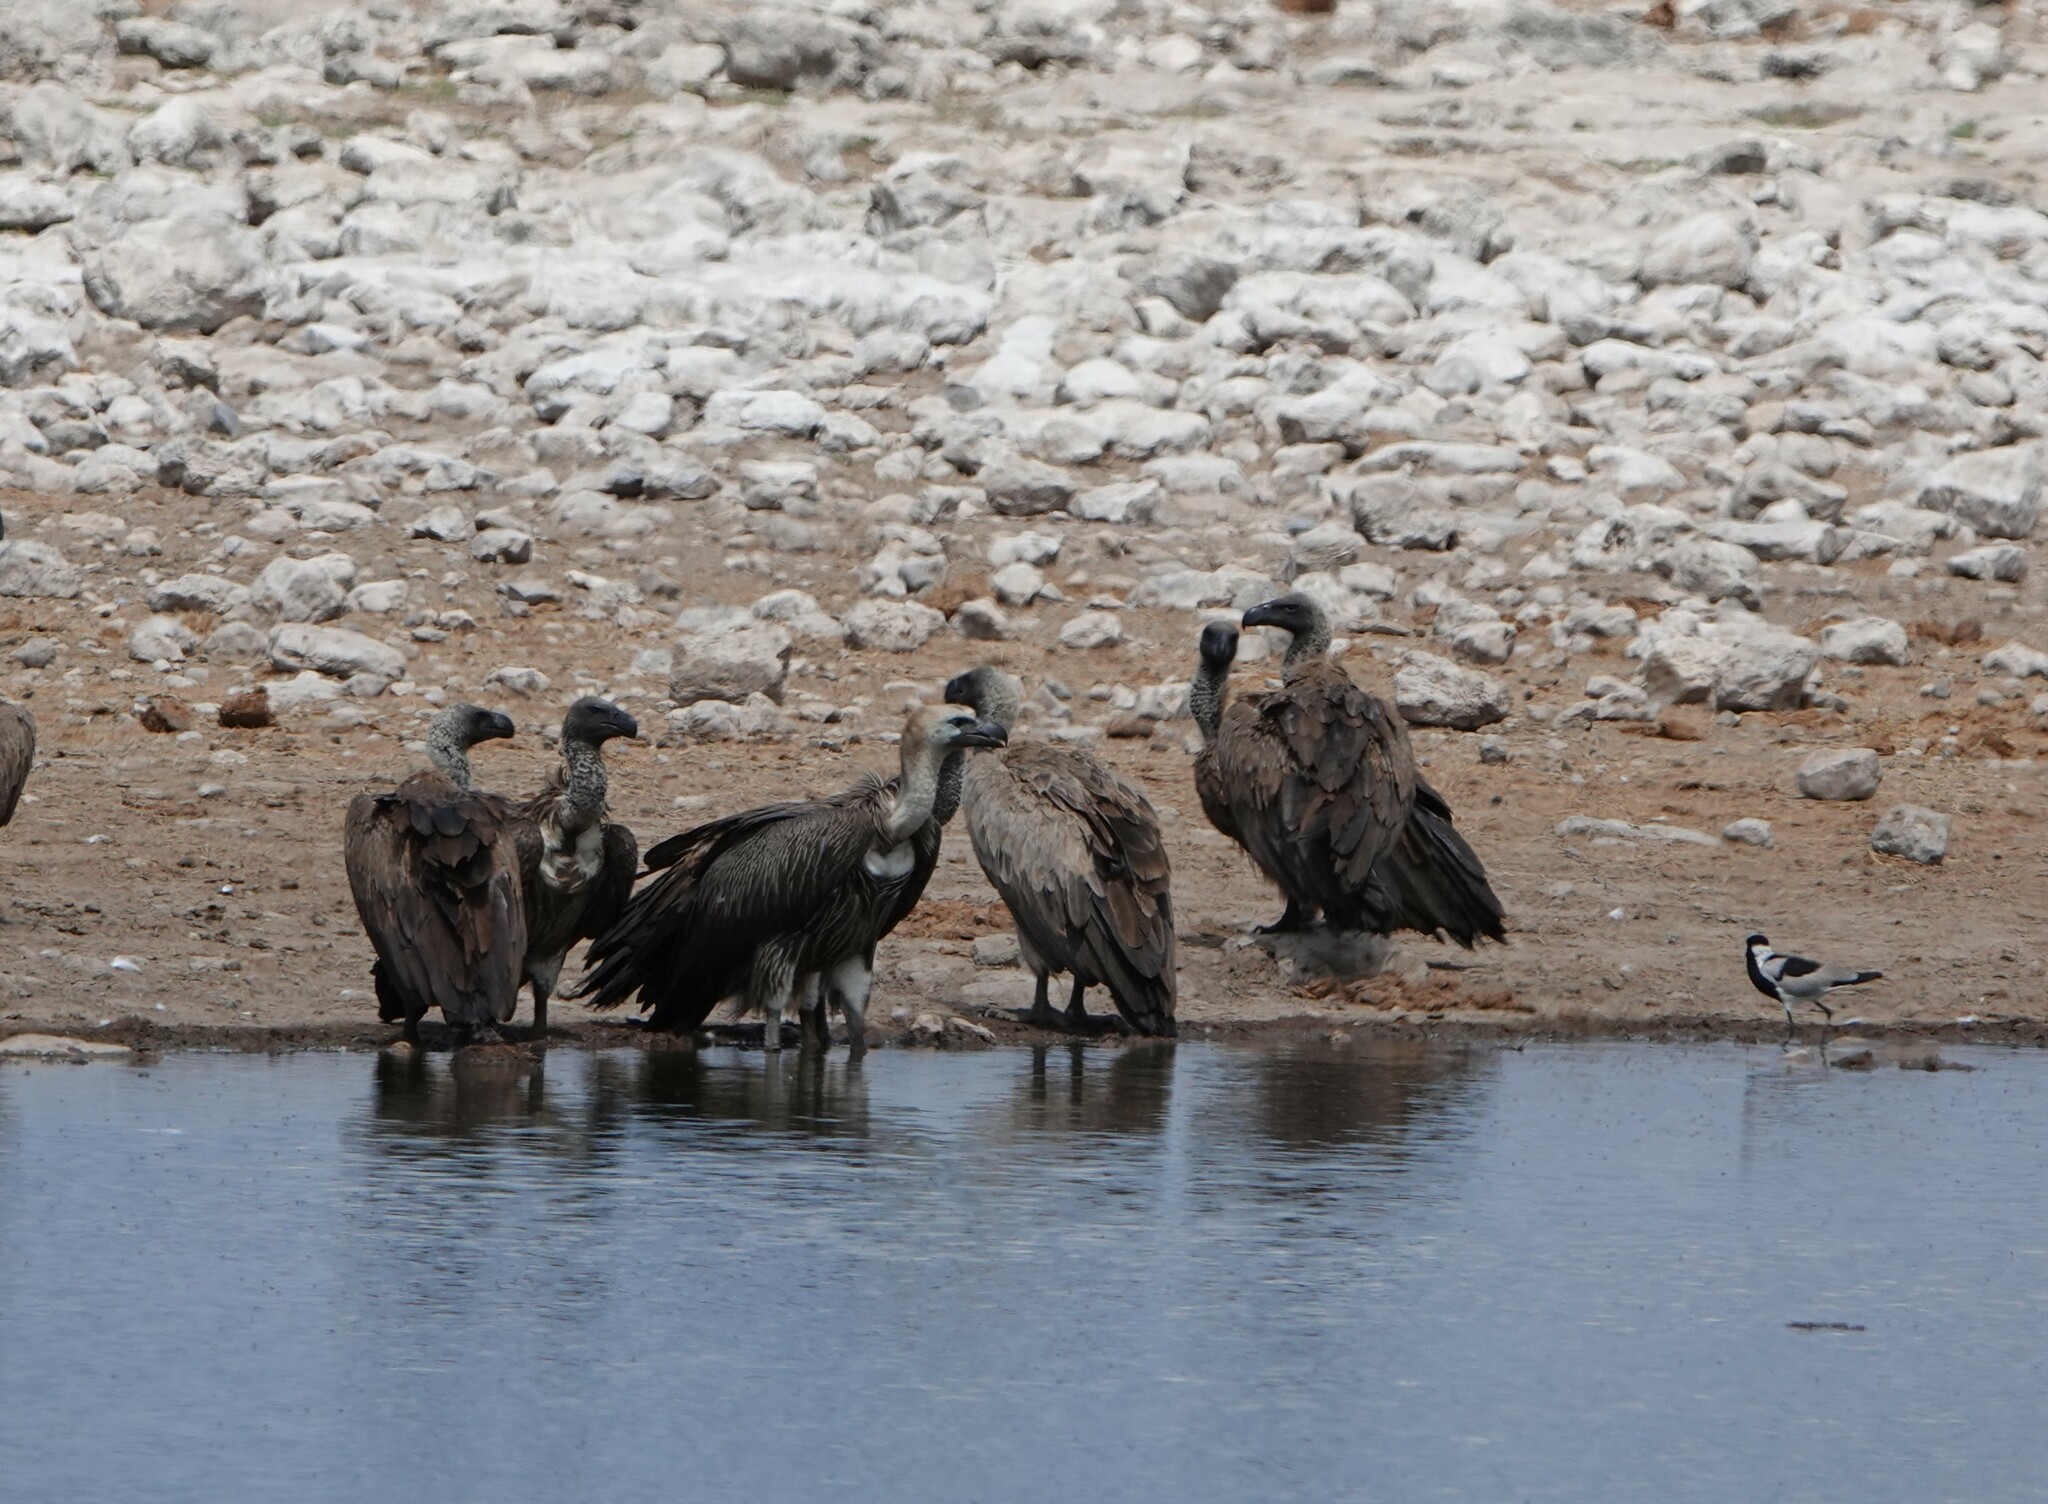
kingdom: Animalia
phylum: Chordata
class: Aves
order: Accipitriformes
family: Accipitridae
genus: Gyps
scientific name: Gyps africanus
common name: White-backed vulture
